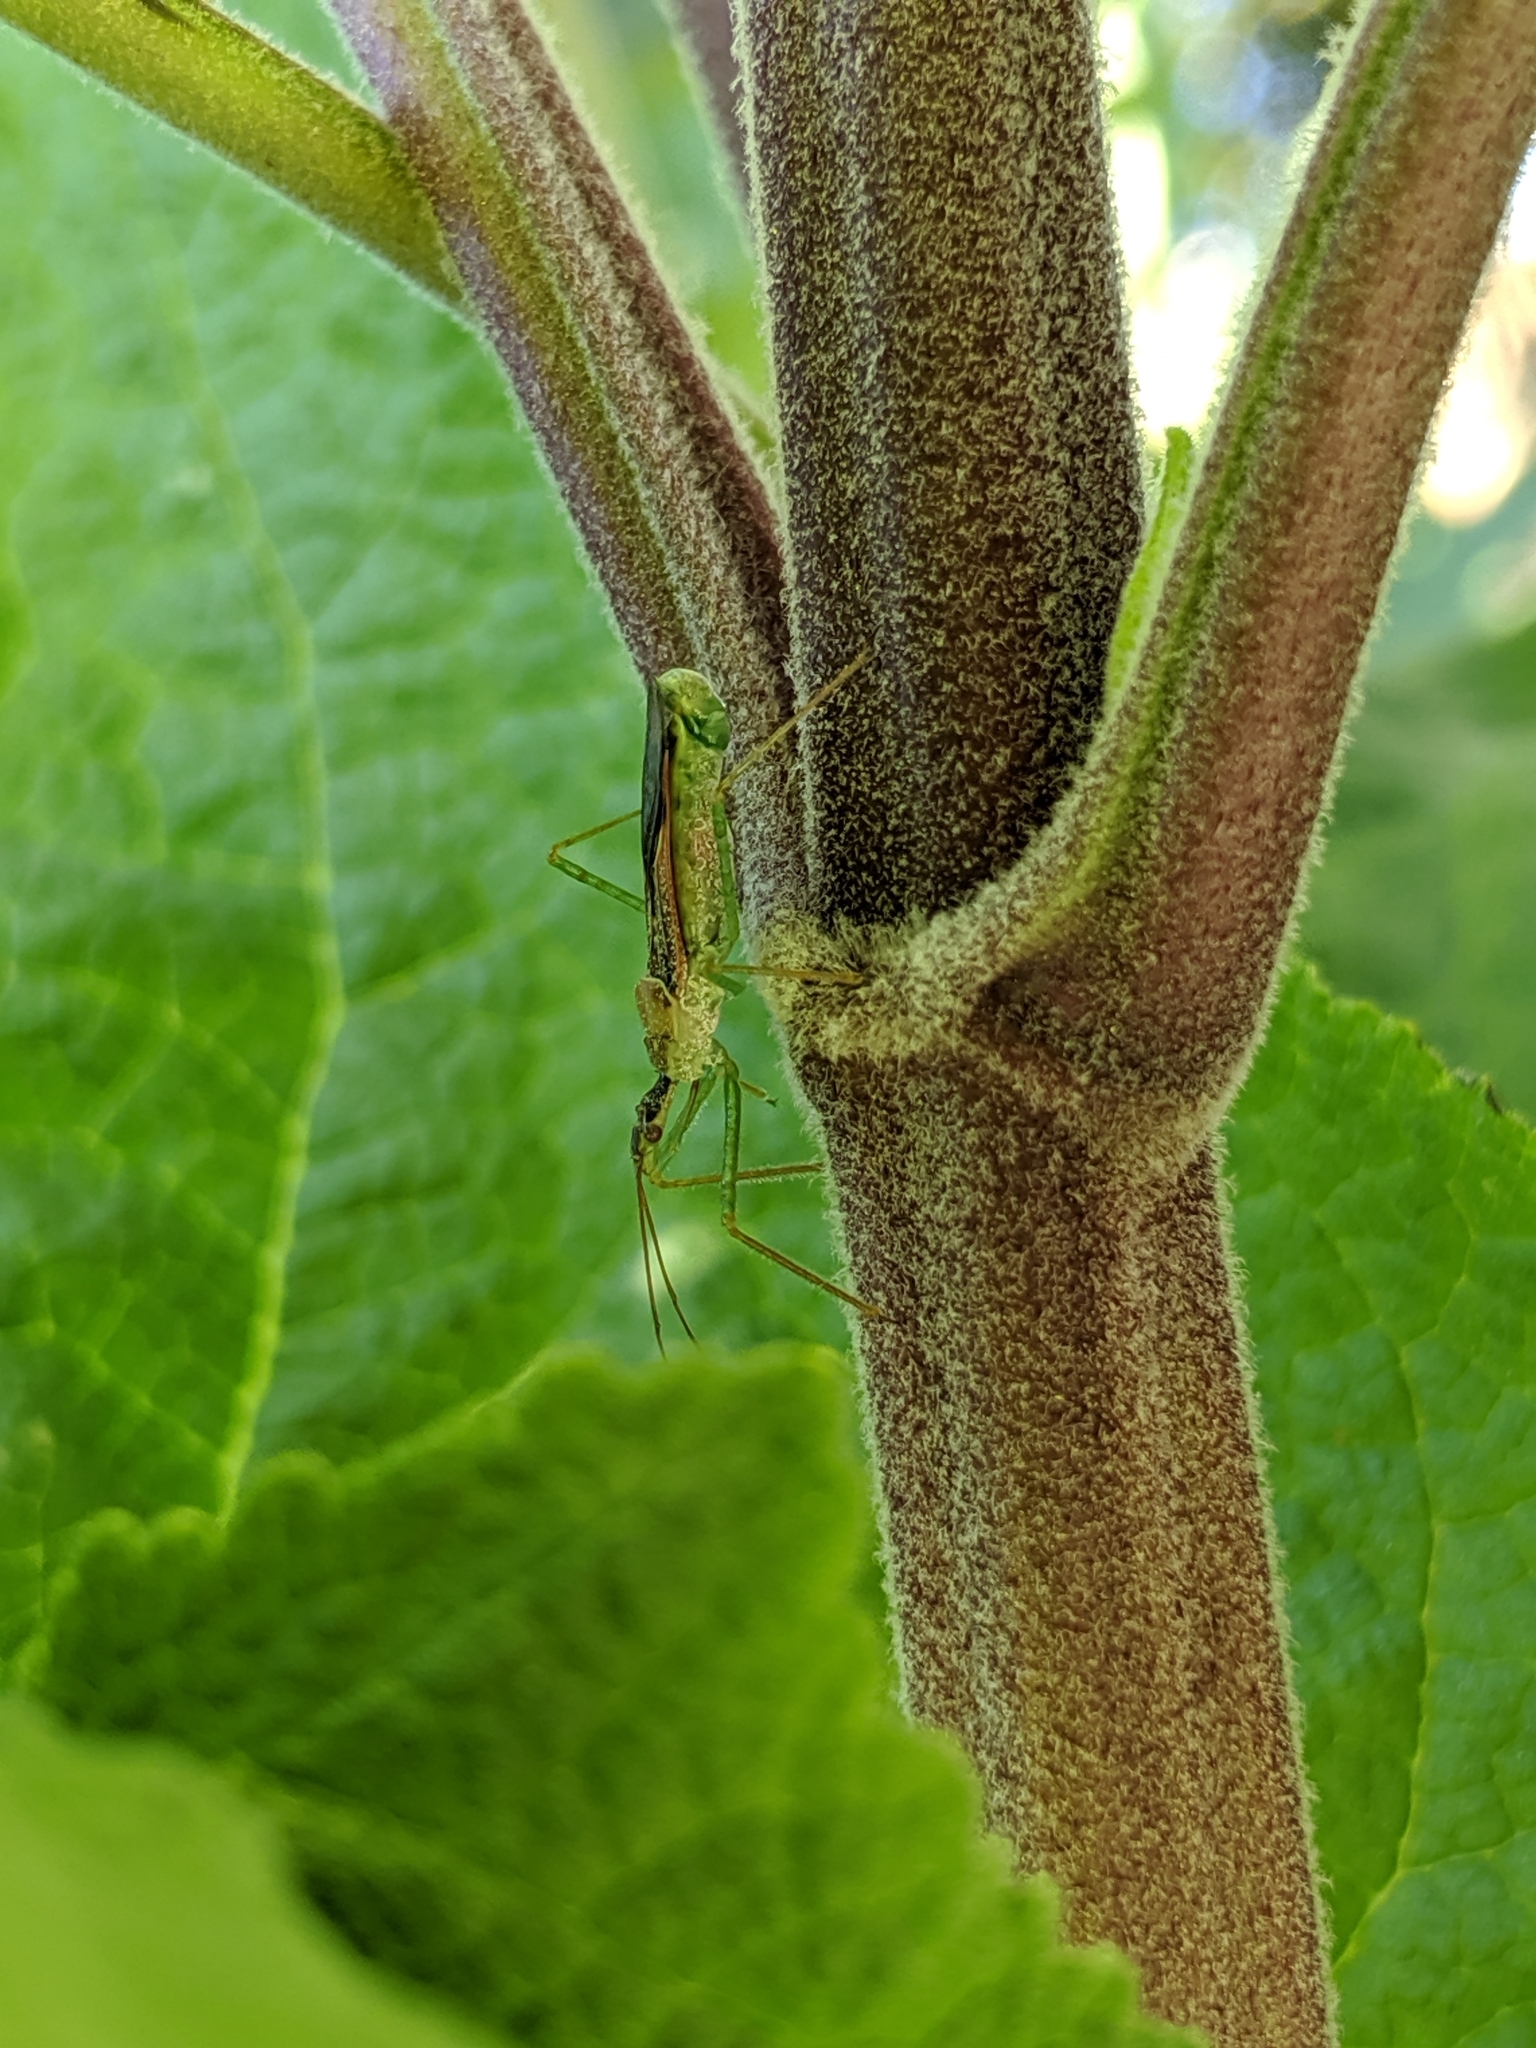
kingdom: Animalia
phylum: Arthropoda
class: Insecta
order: Hemiptera
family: Reduviidae
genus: Zelus
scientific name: Zelus luridus
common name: Pale green assassin bug
